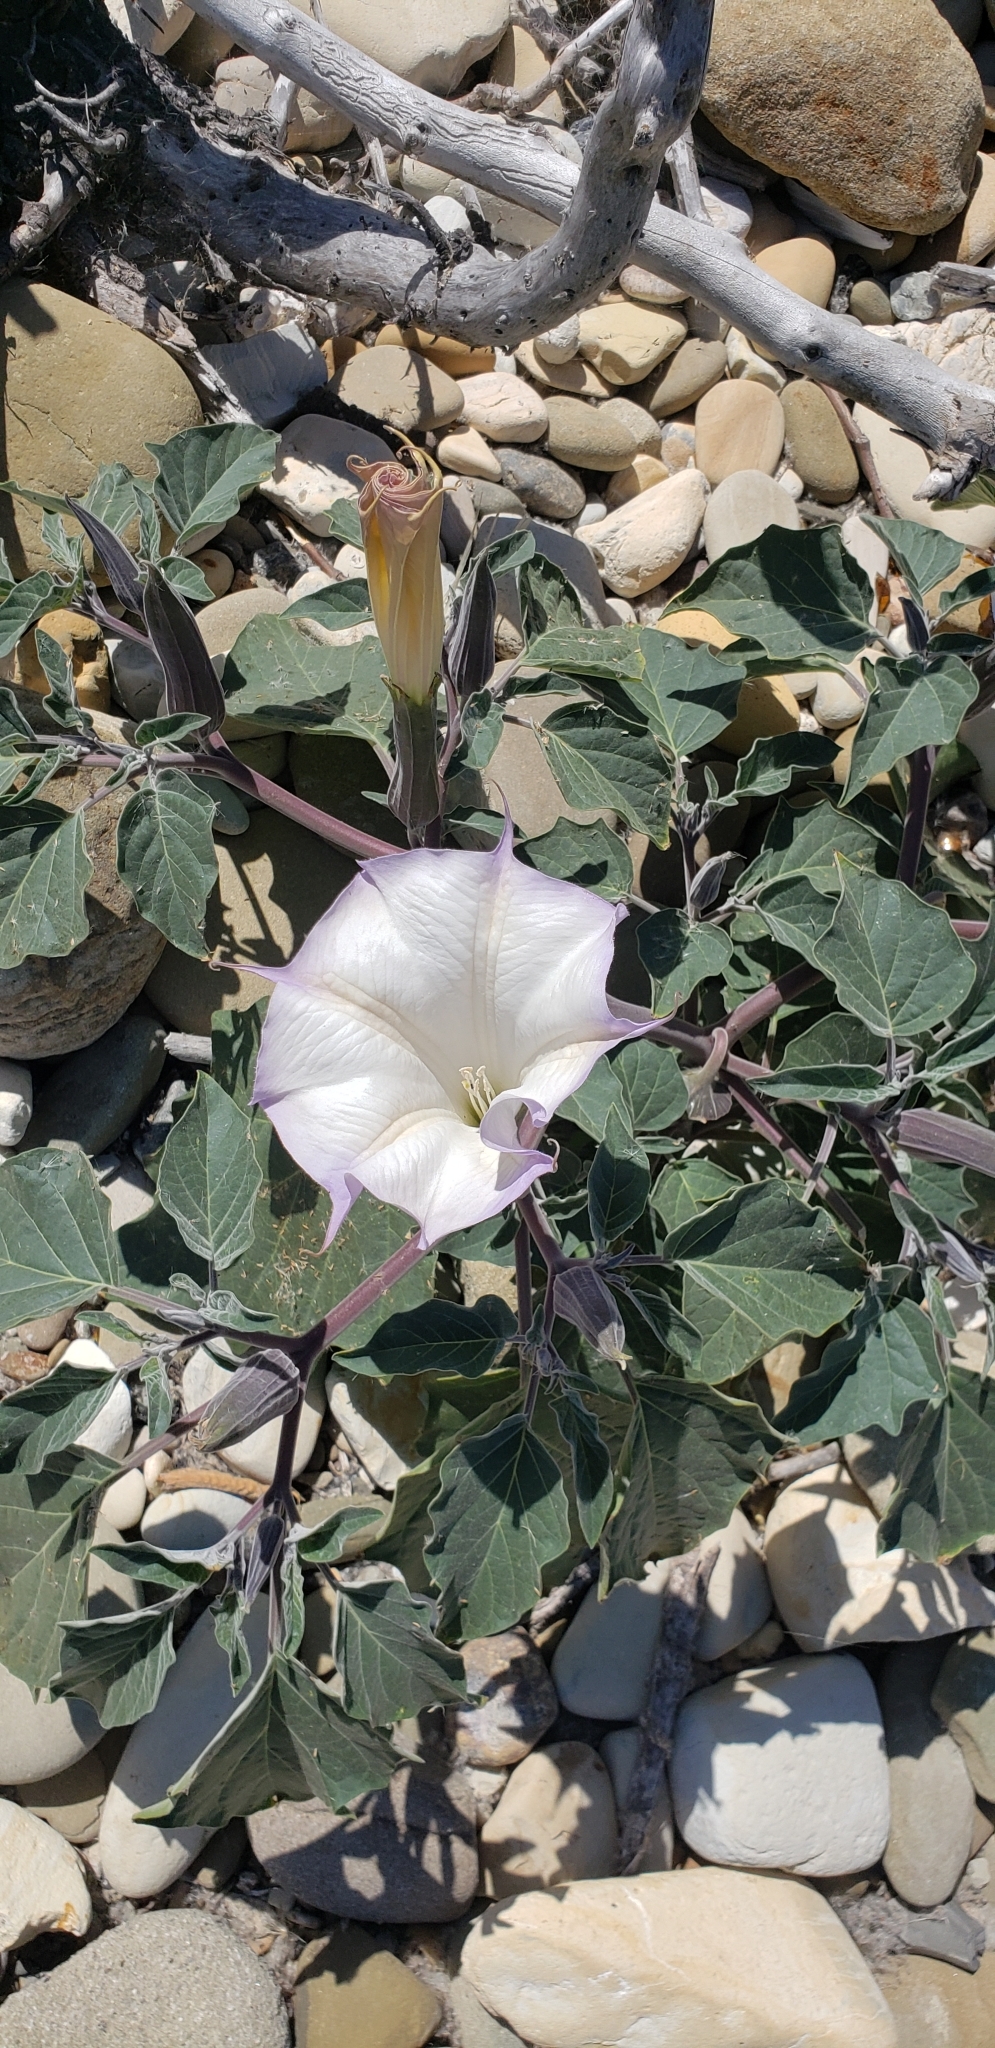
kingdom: Plantae
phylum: Tracheophyta
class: Magnoliopsida
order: Solanales
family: Solanaceae
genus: Datura
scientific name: Datura wrightii
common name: Sacred thorn-apple
